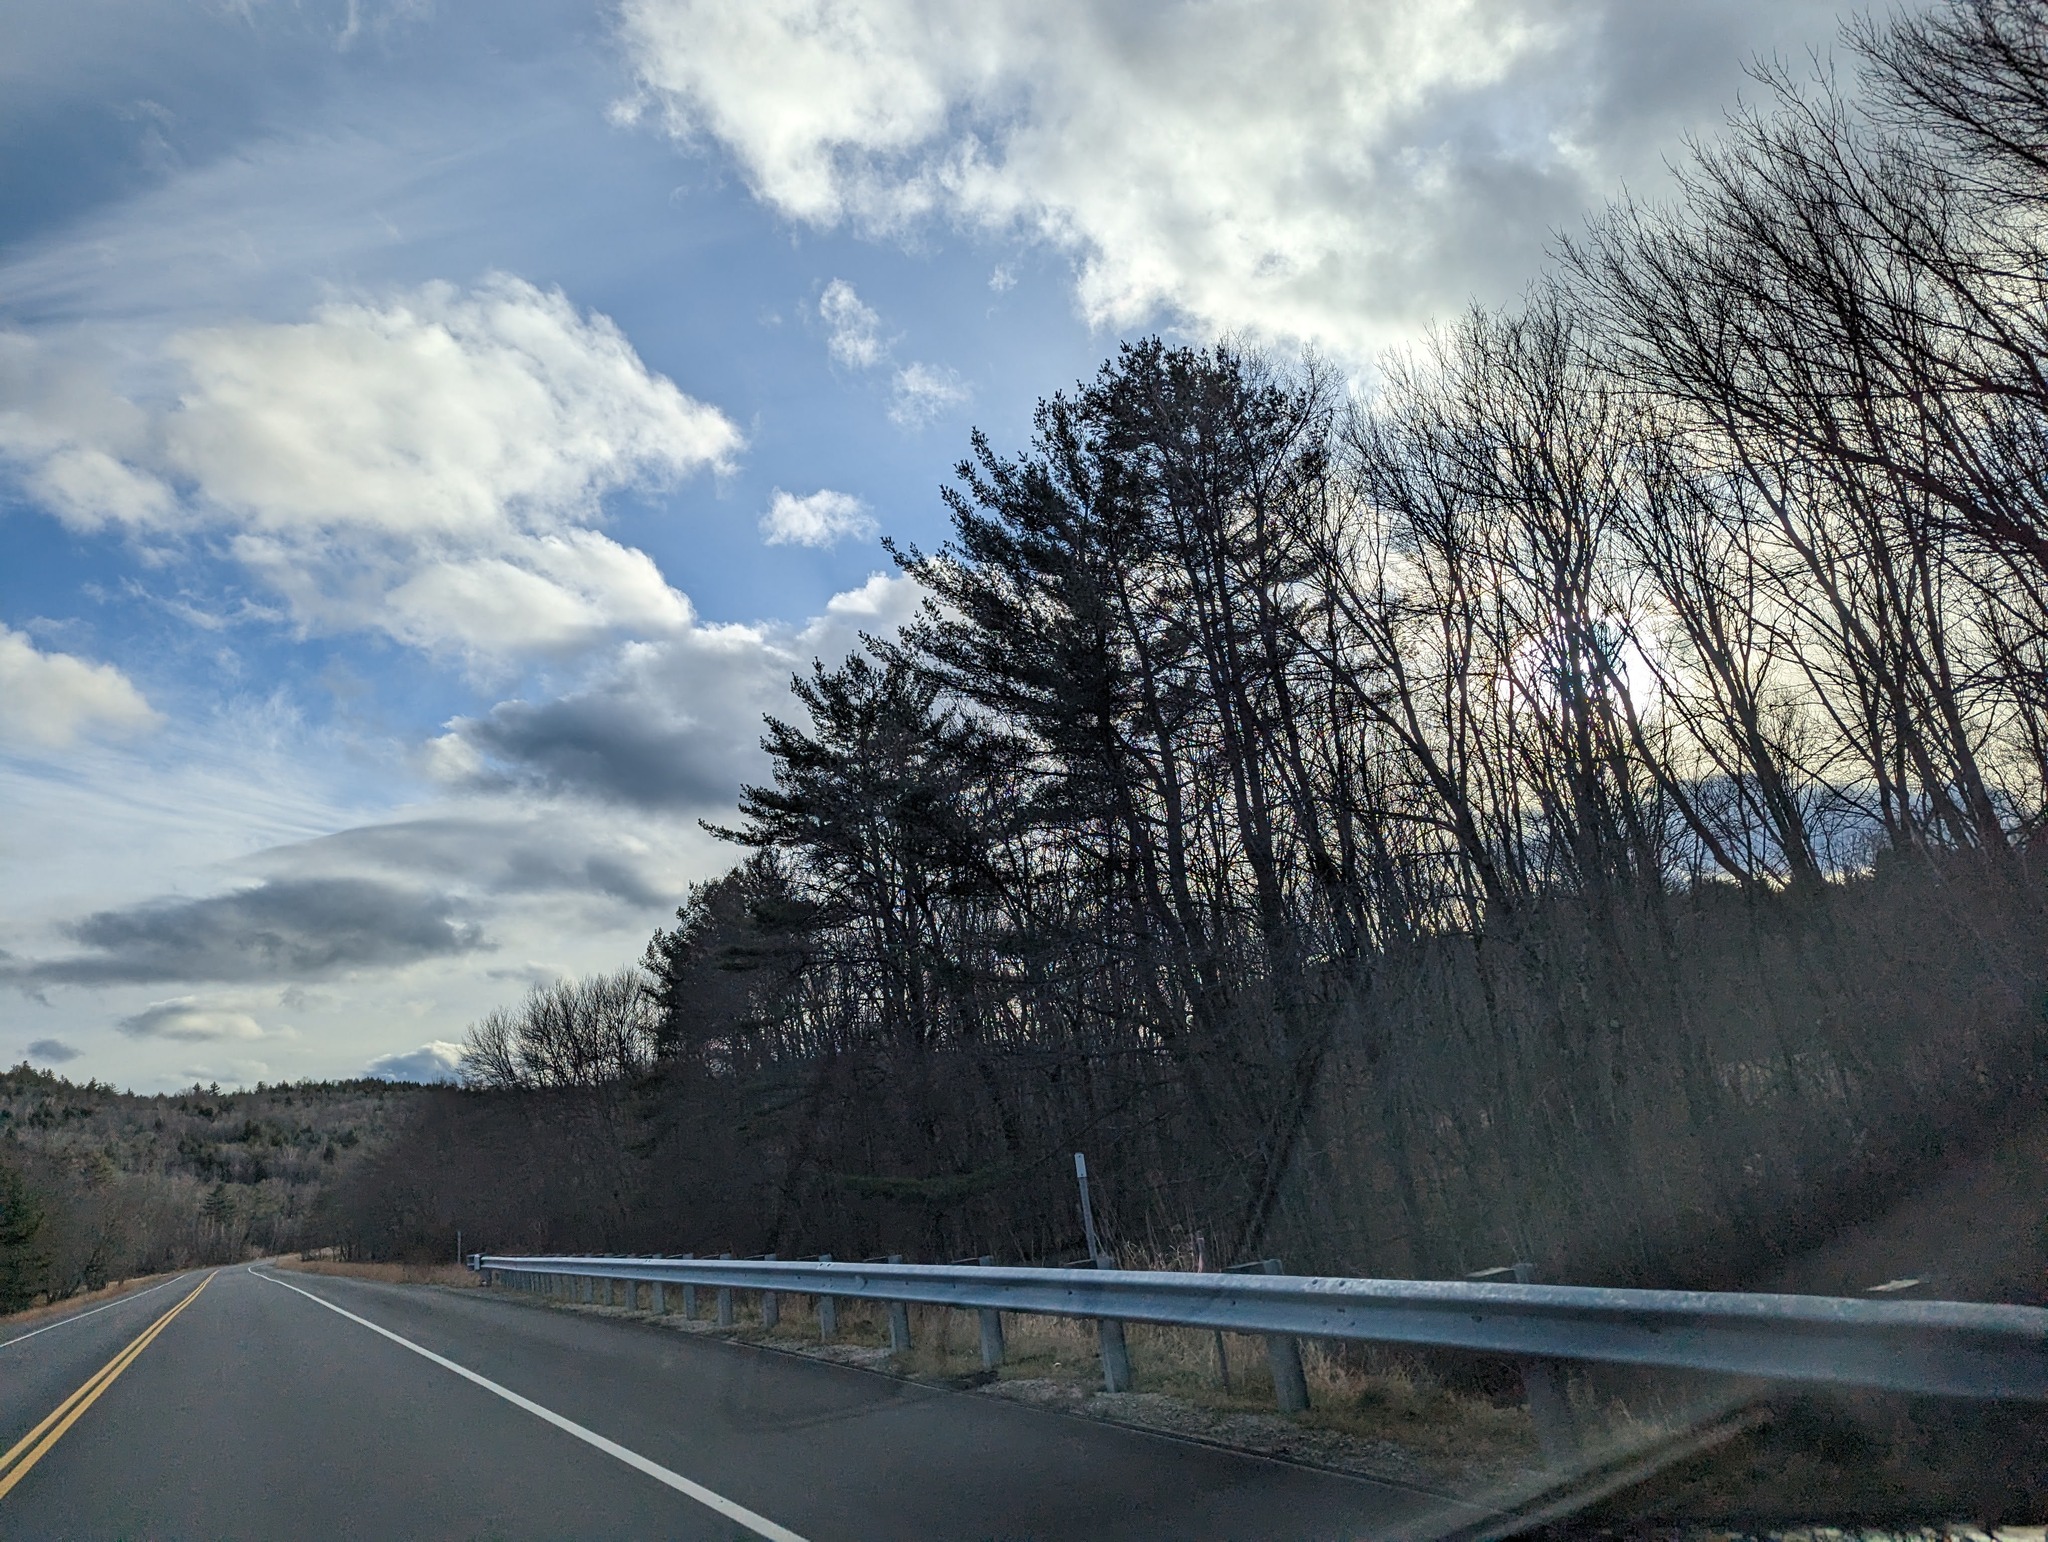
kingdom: Plantae
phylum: Tracheophyta
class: Pinopsida
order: Pinales
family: Pinaceae
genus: Pinus
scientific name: Pinus strobus
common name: Weymouth pine
